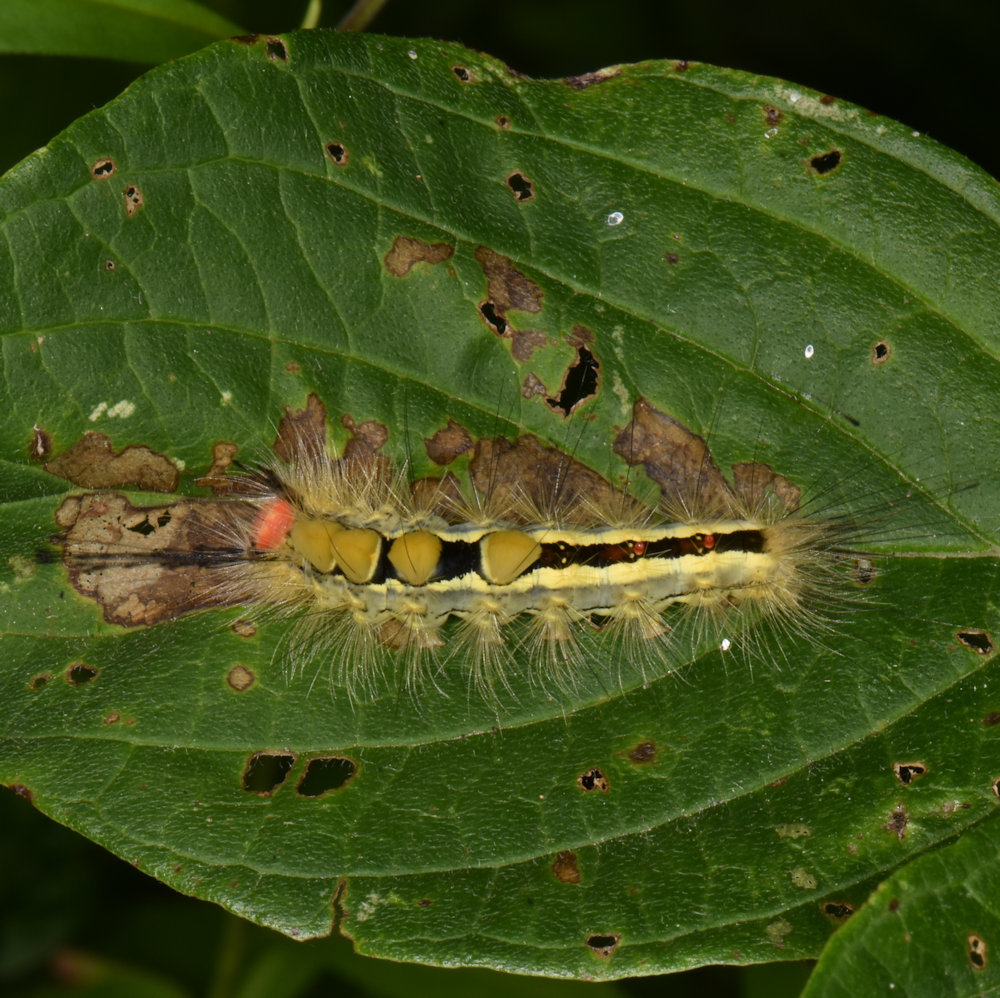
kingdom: Animalia
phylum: Arthropoda
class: Insecta
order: Lepidoptera
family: Erebidae
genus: Orgyia
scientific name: Orgyia leucostigma
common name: White-marked tussock moth
